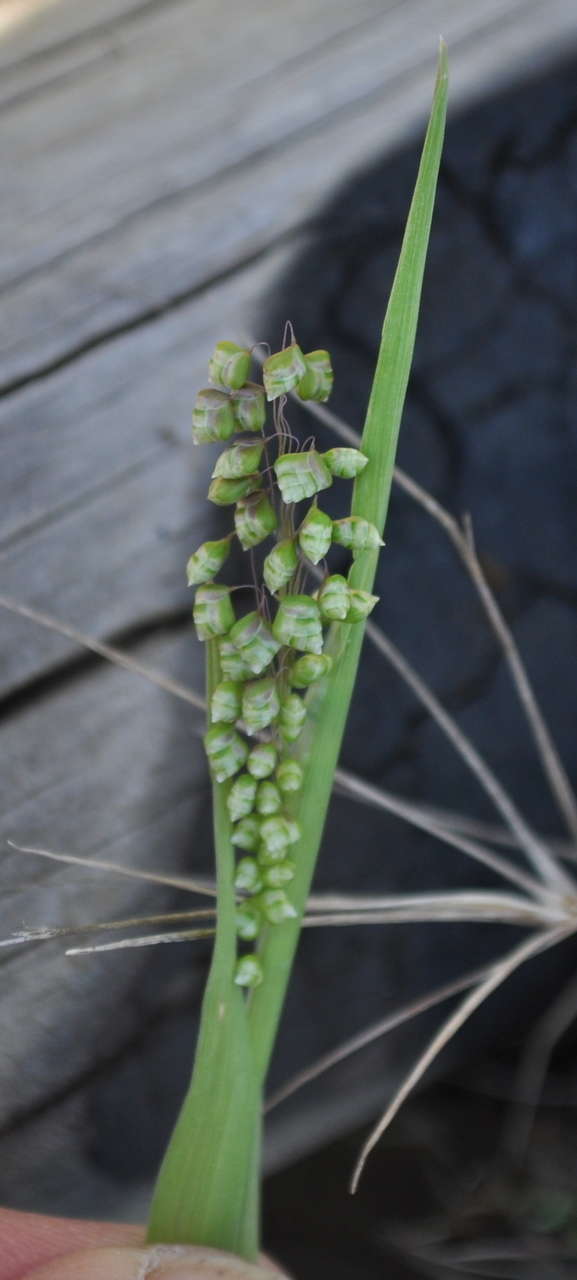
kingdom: Plantae
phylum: Tracheophyta
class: Liliopsida
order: Poales
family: Poaceae
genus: Briza
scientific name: Briza minor
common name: Lesser quaking-grass
